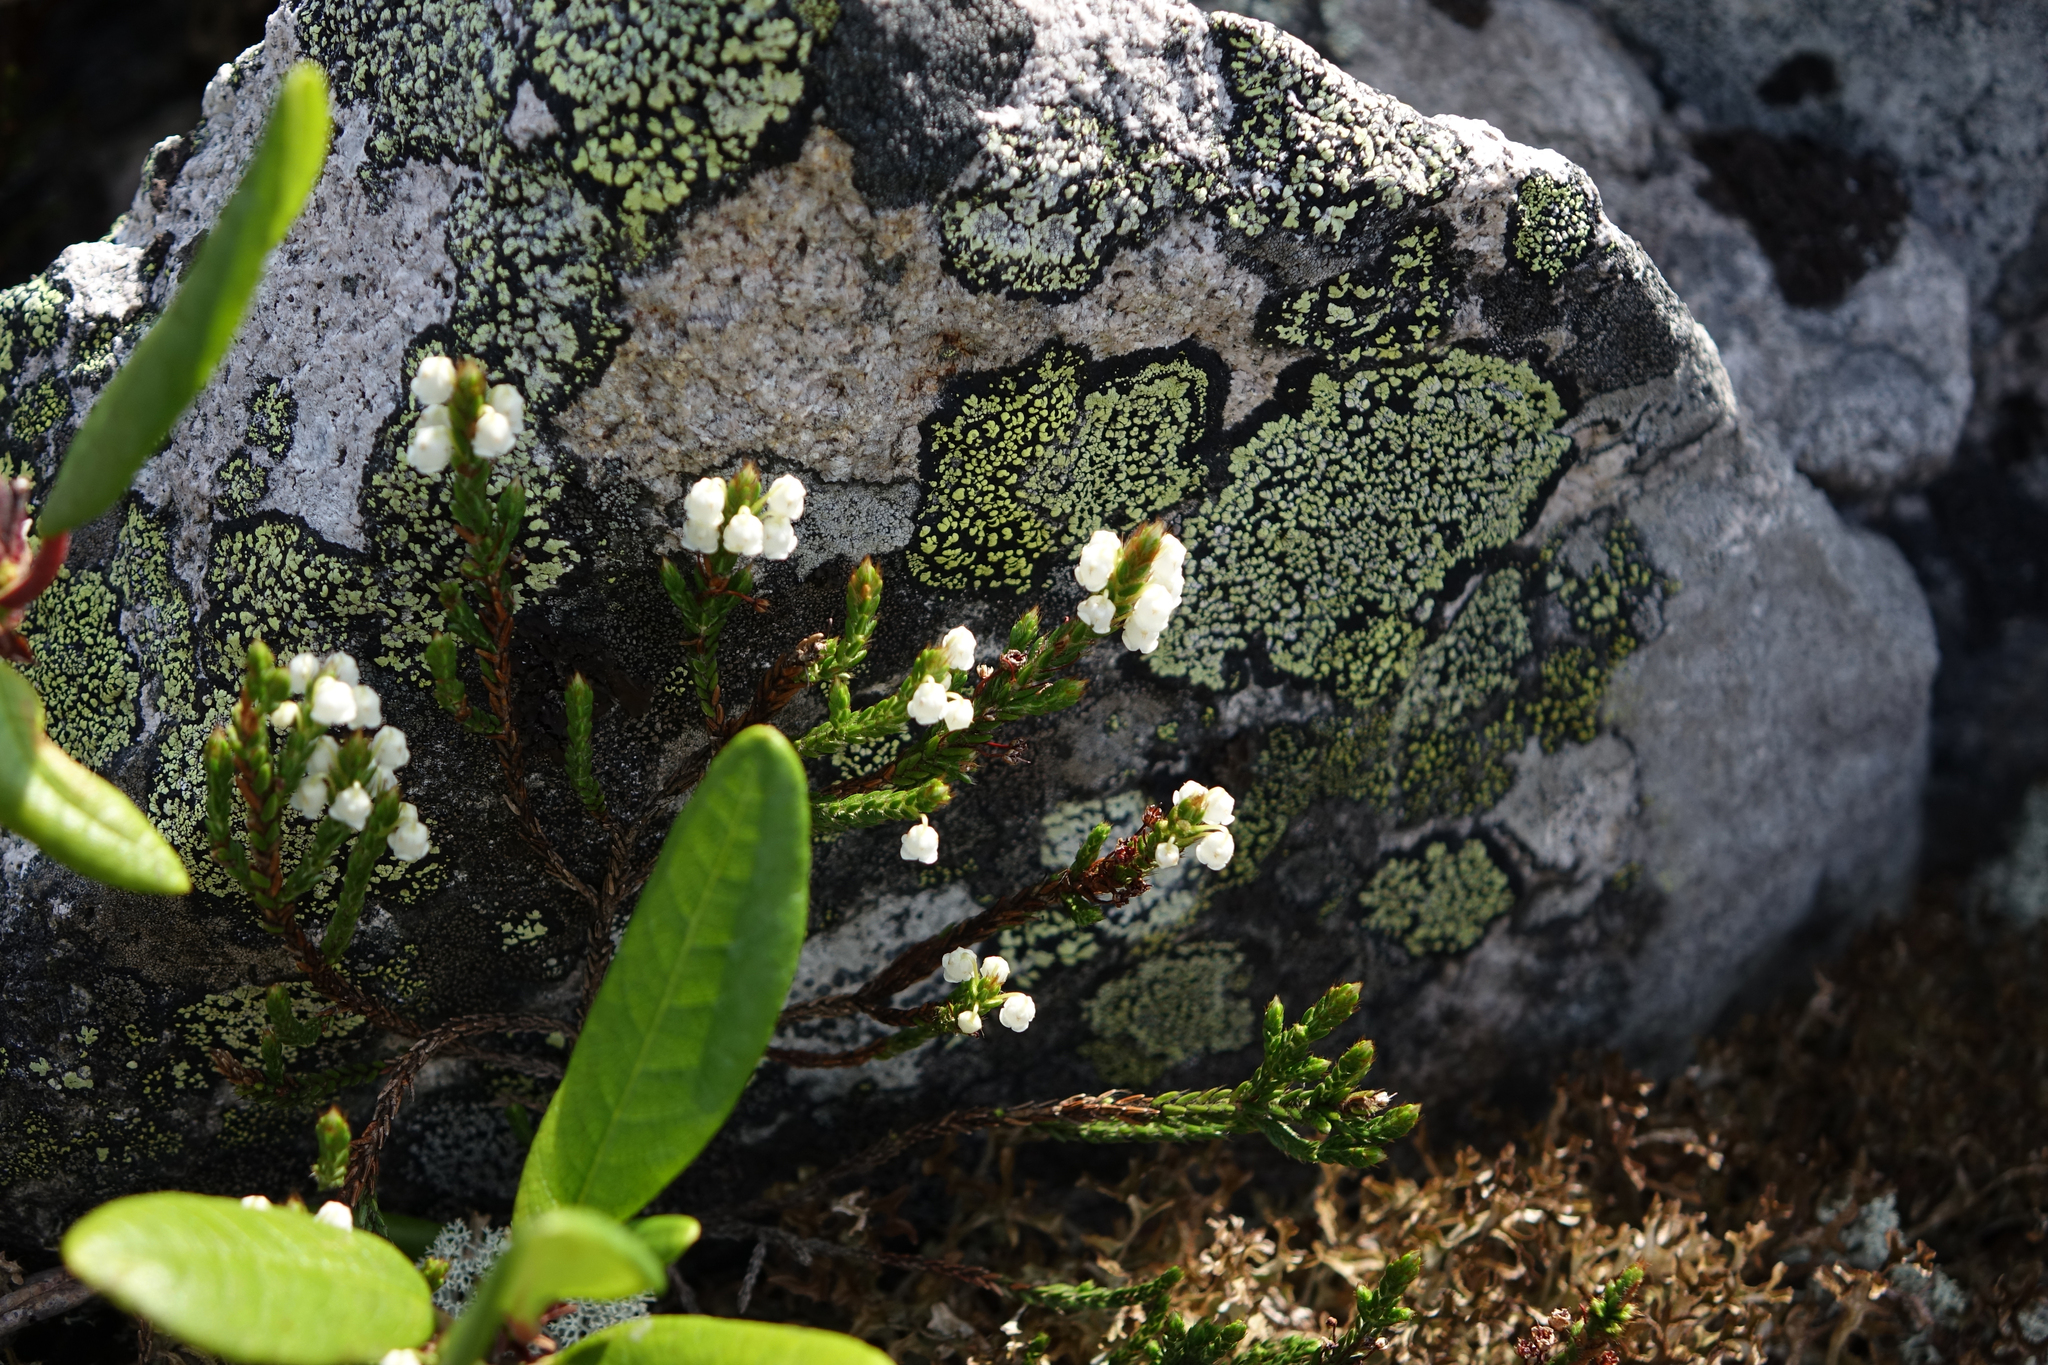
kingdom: Plantae
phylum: Tracheophyta
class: Magnoliopsida
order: Ericales
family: Ericaceae
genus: Cassiope
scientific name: Cassiope tetragona
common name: Arctic bell heather
